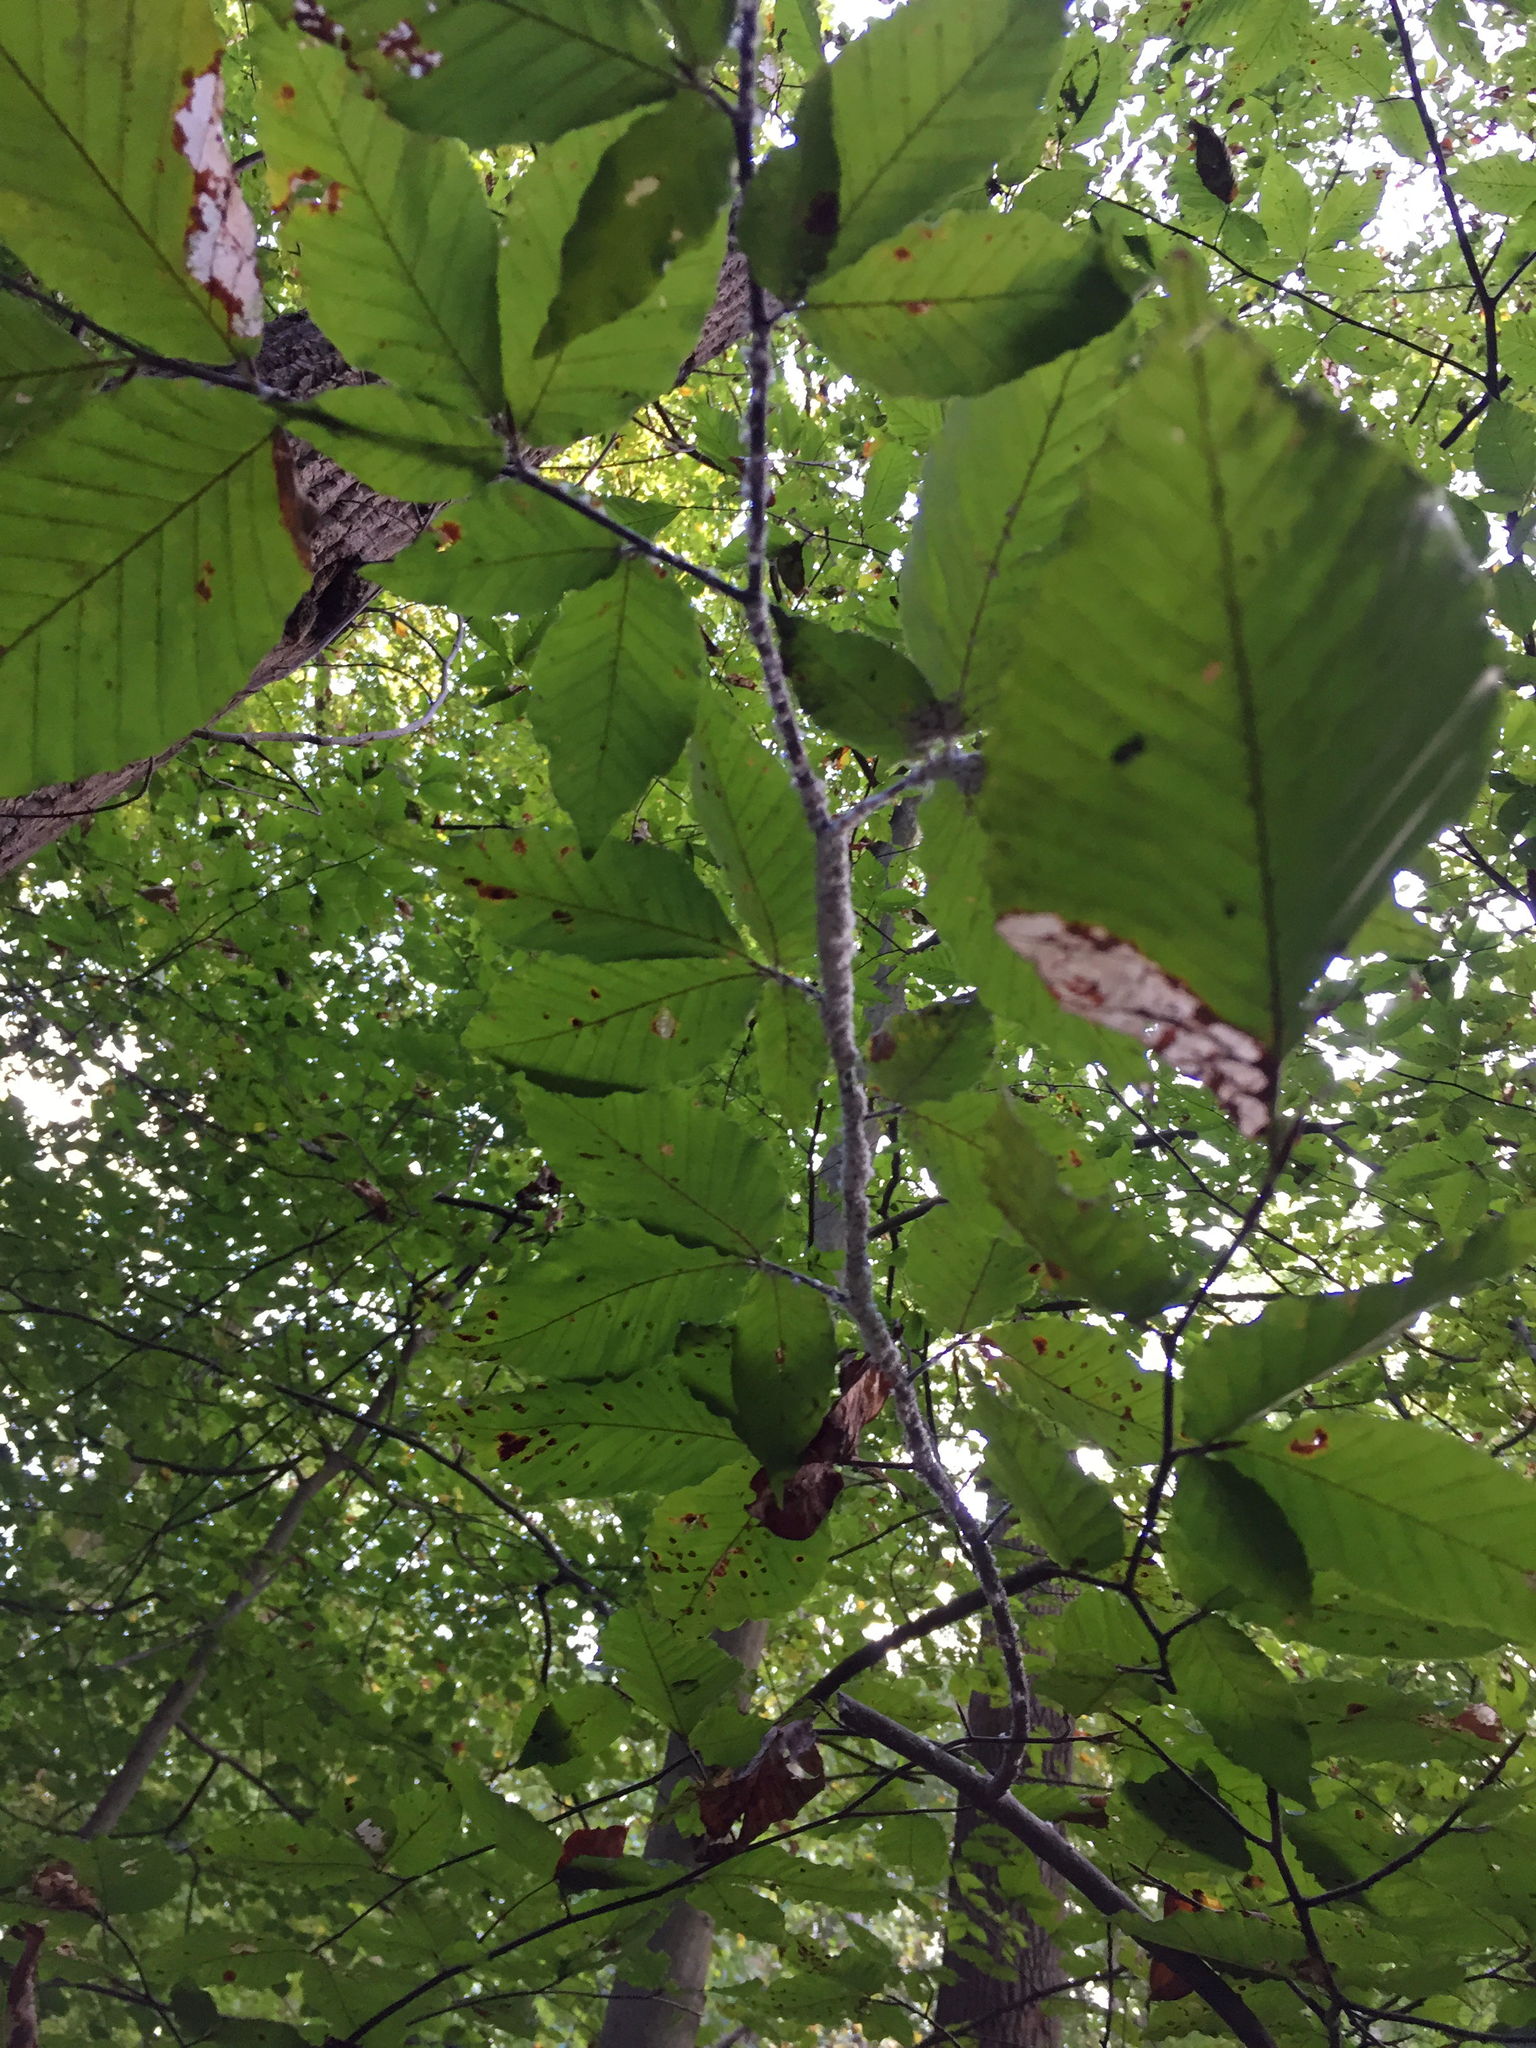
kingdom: Animalia
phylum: Arthropoda
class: Insecta
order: Hemiptera
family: Aphididae
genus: Grylloprociphilus
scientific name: Grylloprociphilus imbricator
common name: Beech blight aphid
